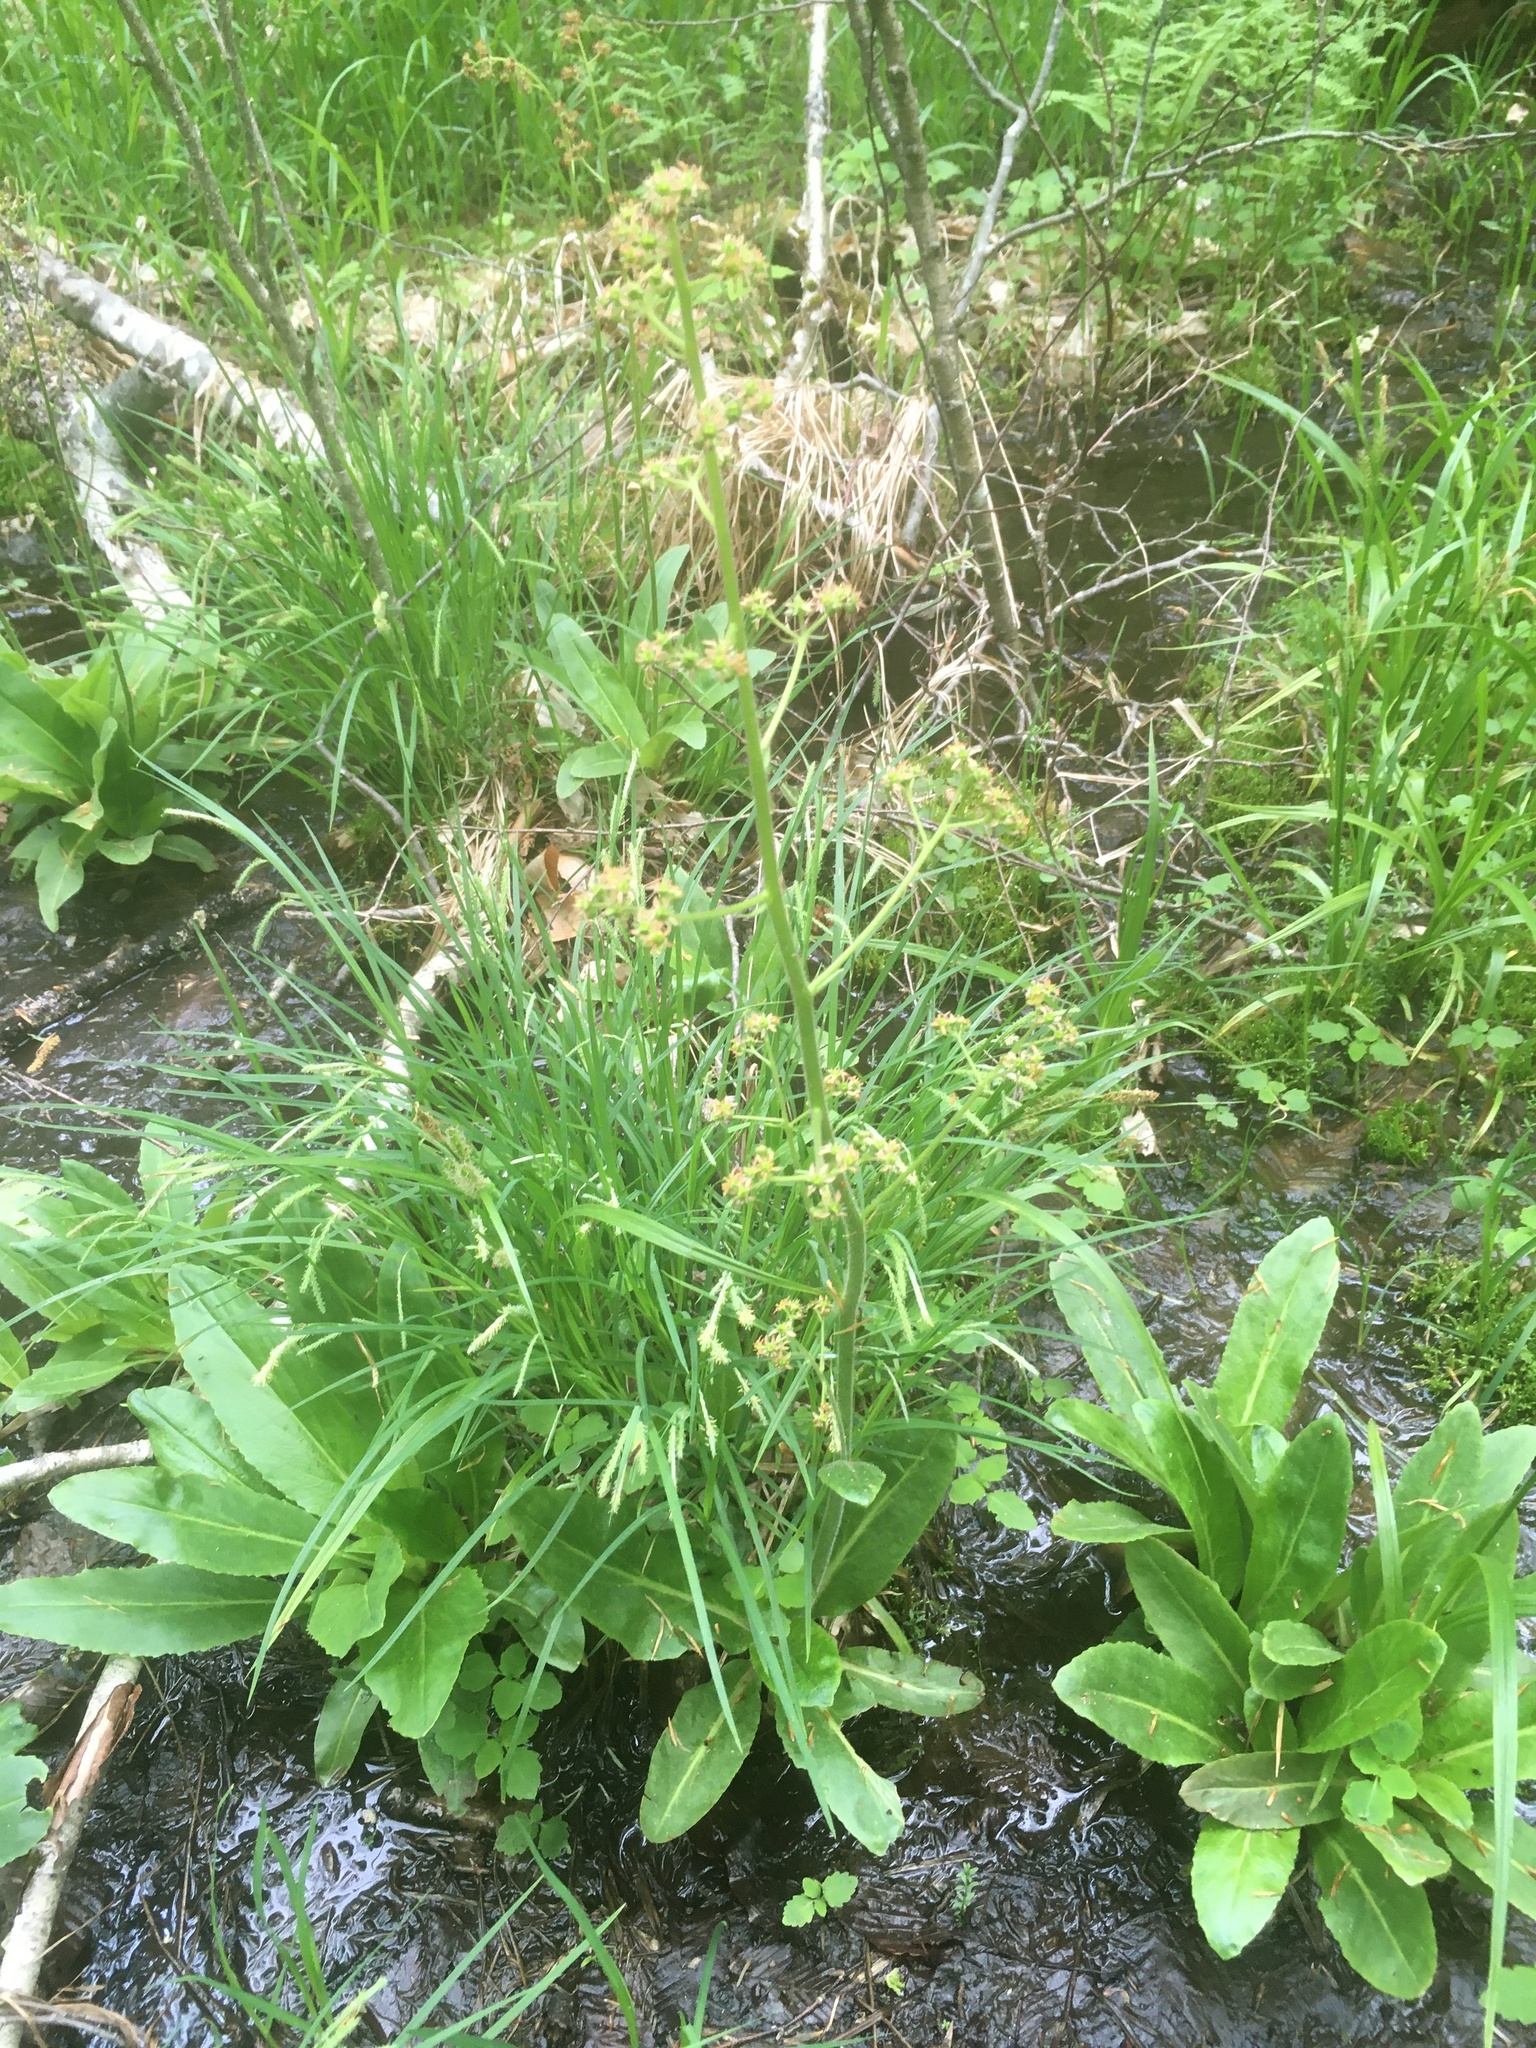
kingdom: Plantae
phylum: Tracheophyta
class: Magnoliopsida
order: Saxifragales
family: Saxifragaceae
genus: Micranthes
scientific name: Micranthes pensylvanica
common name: Marsh saxifrage
